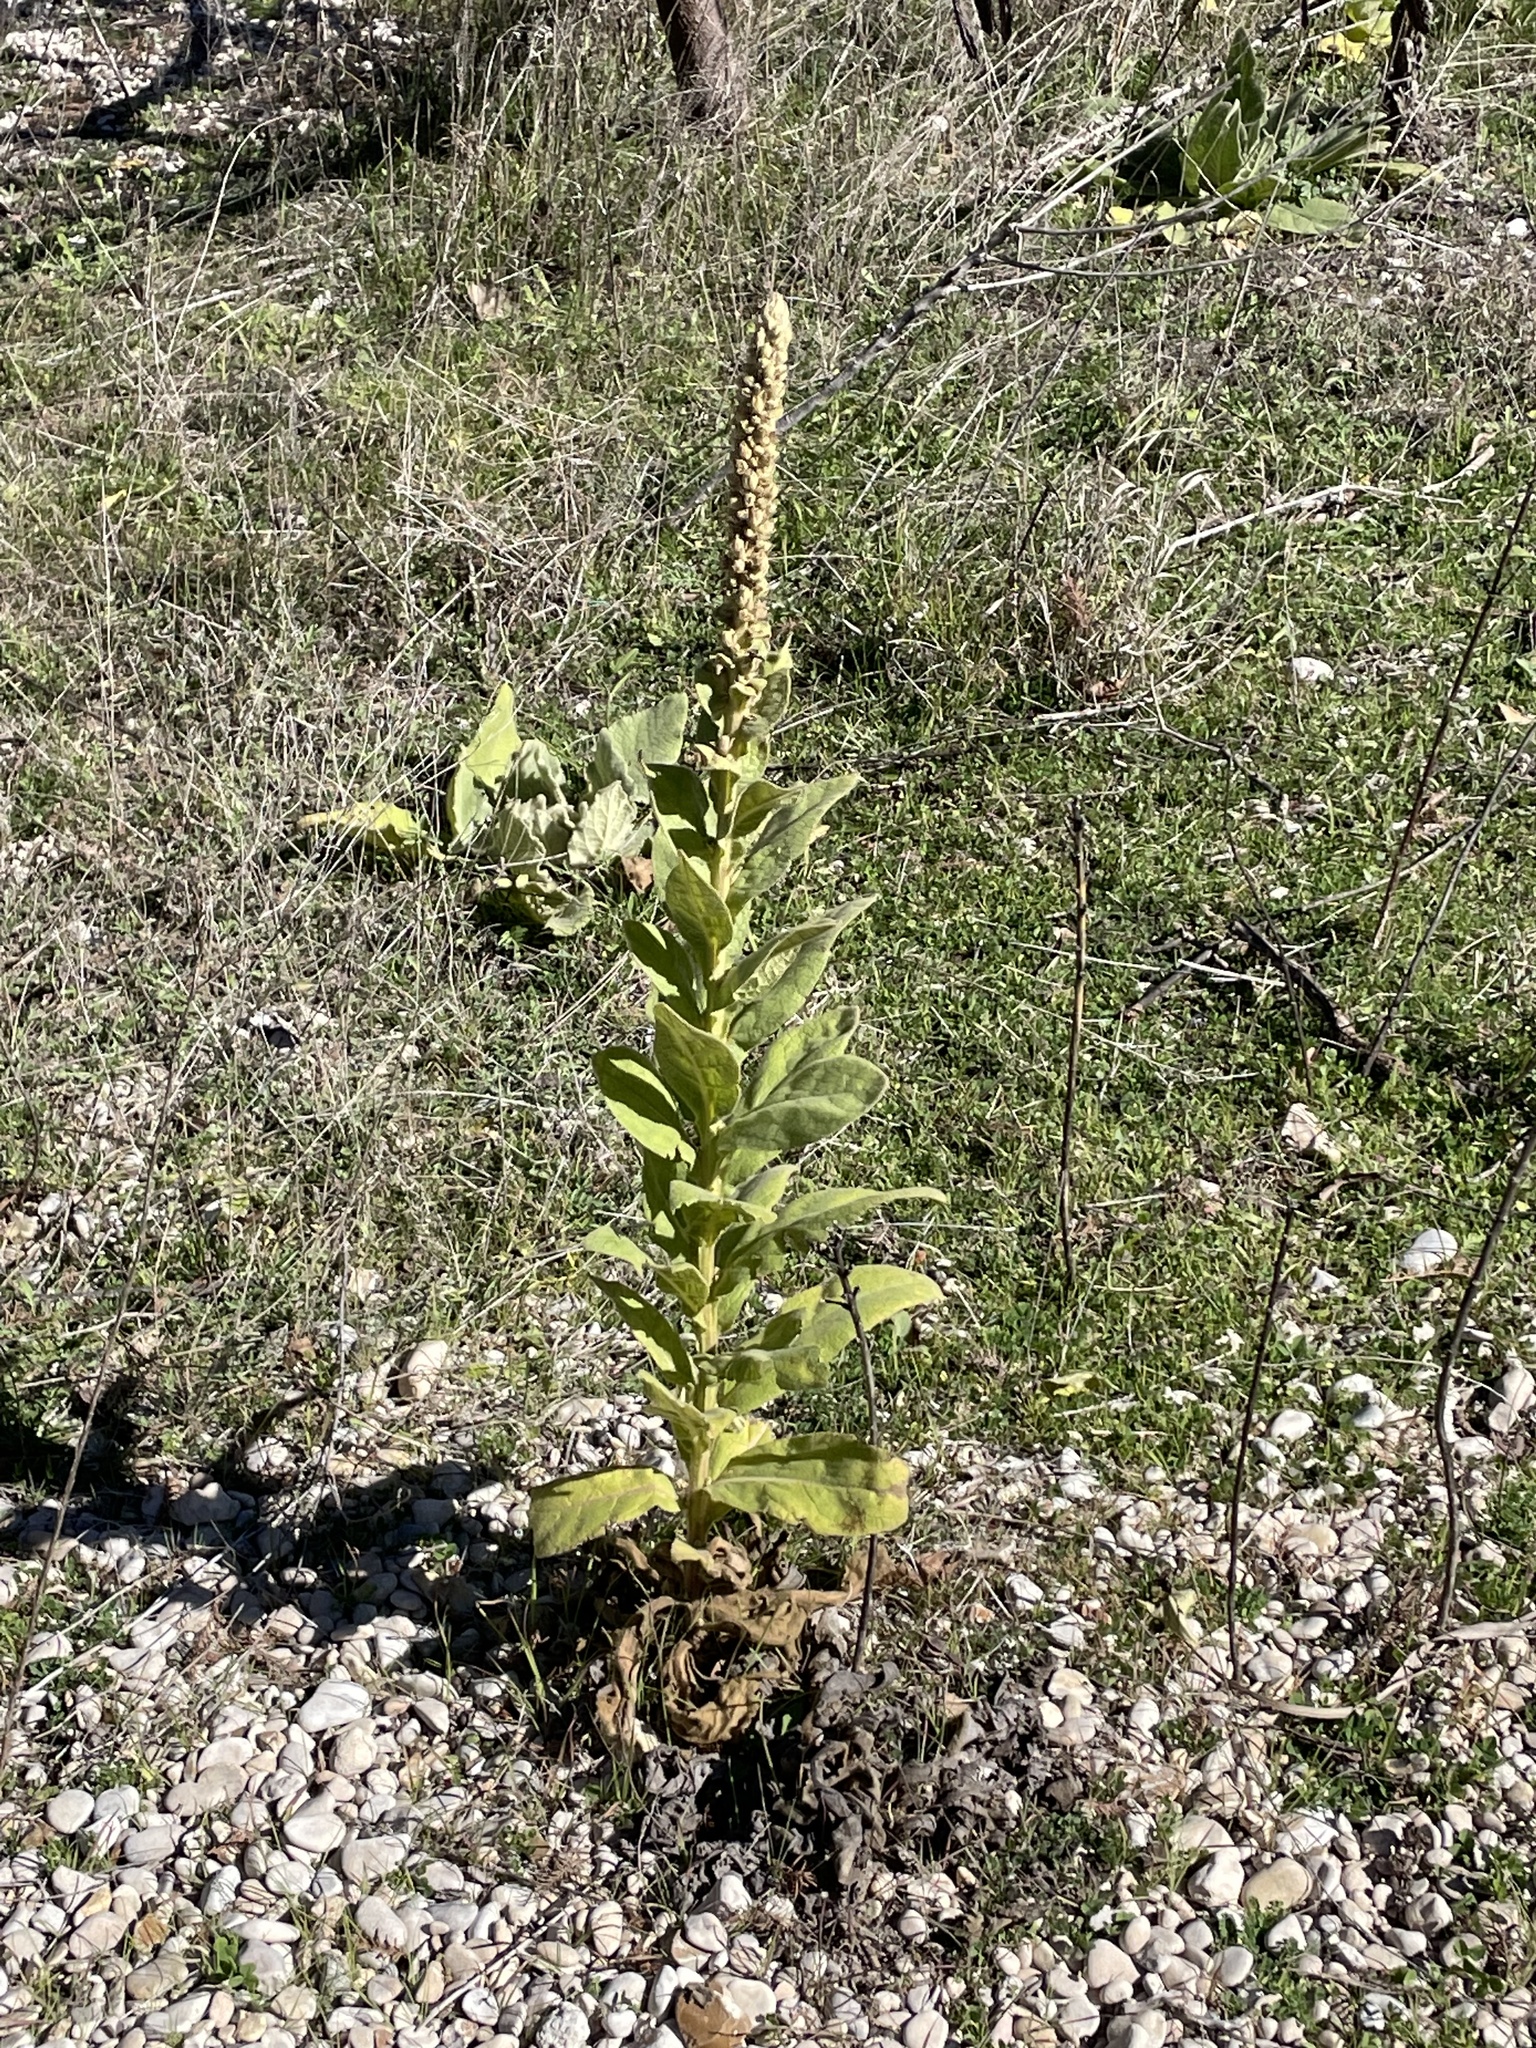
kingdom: Plantae
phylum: Tracheophyta
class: Magnoliopsida
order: Lamiales
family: Scrophulariaceae
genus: Verbascum
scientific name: Verbascum thapsus
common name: Common mullein
